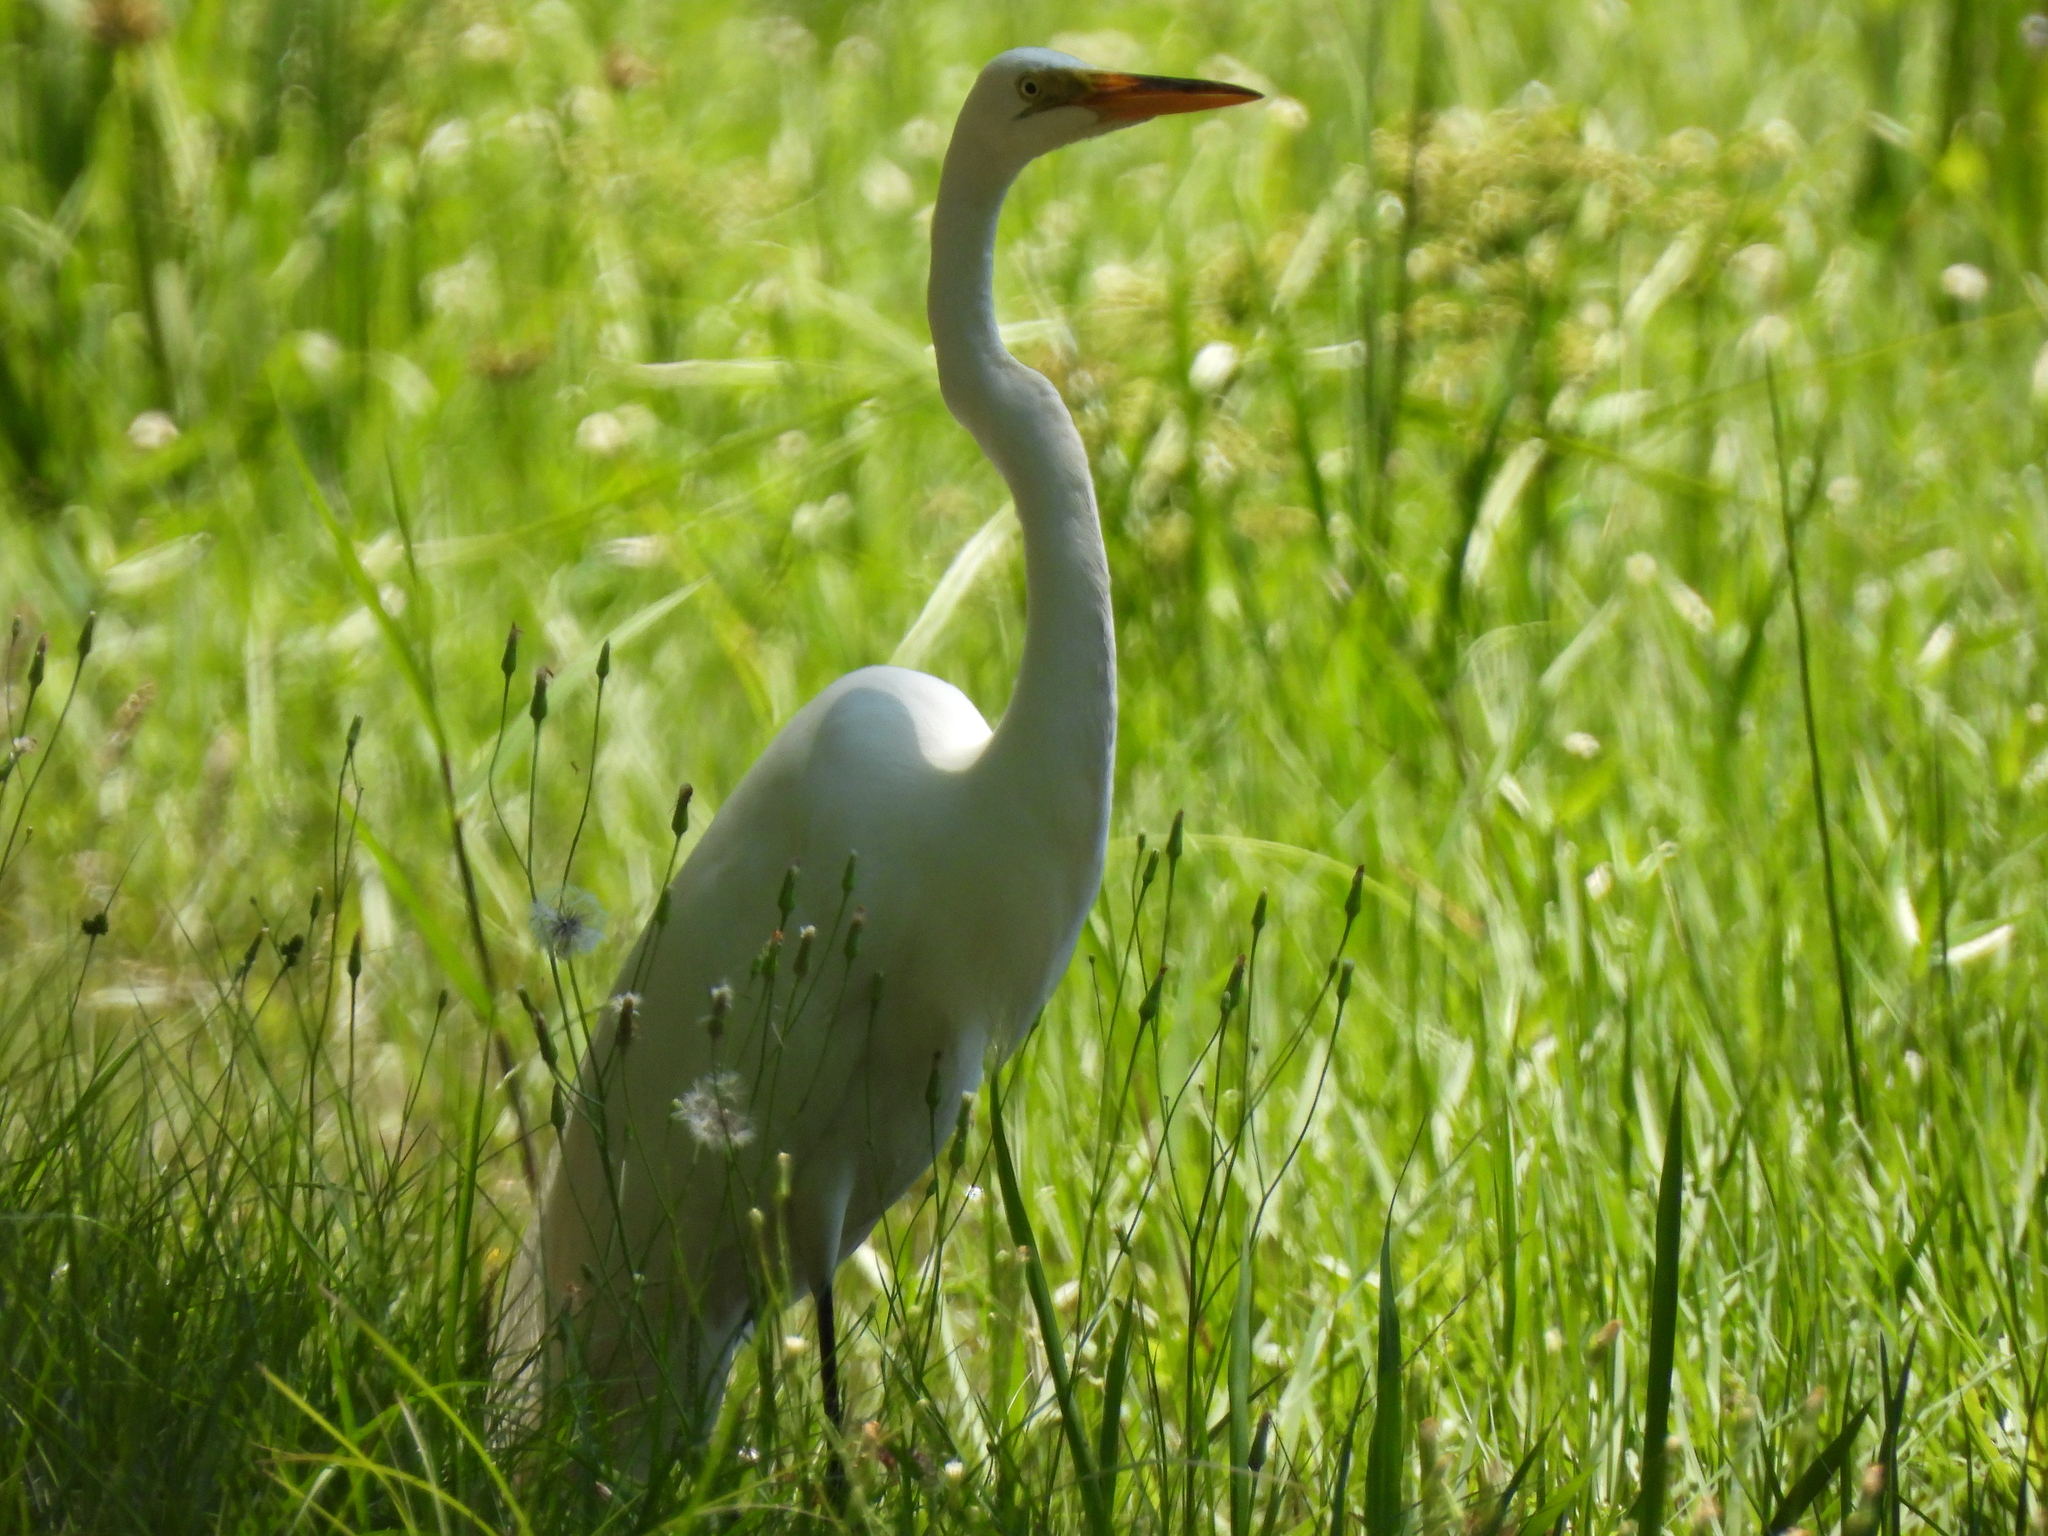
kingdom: Animalia
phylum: Chordata
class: Aves
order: Pelecaniformes
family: Ardeidae
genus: Ardea
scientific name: Ardea alba
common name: Great egret
